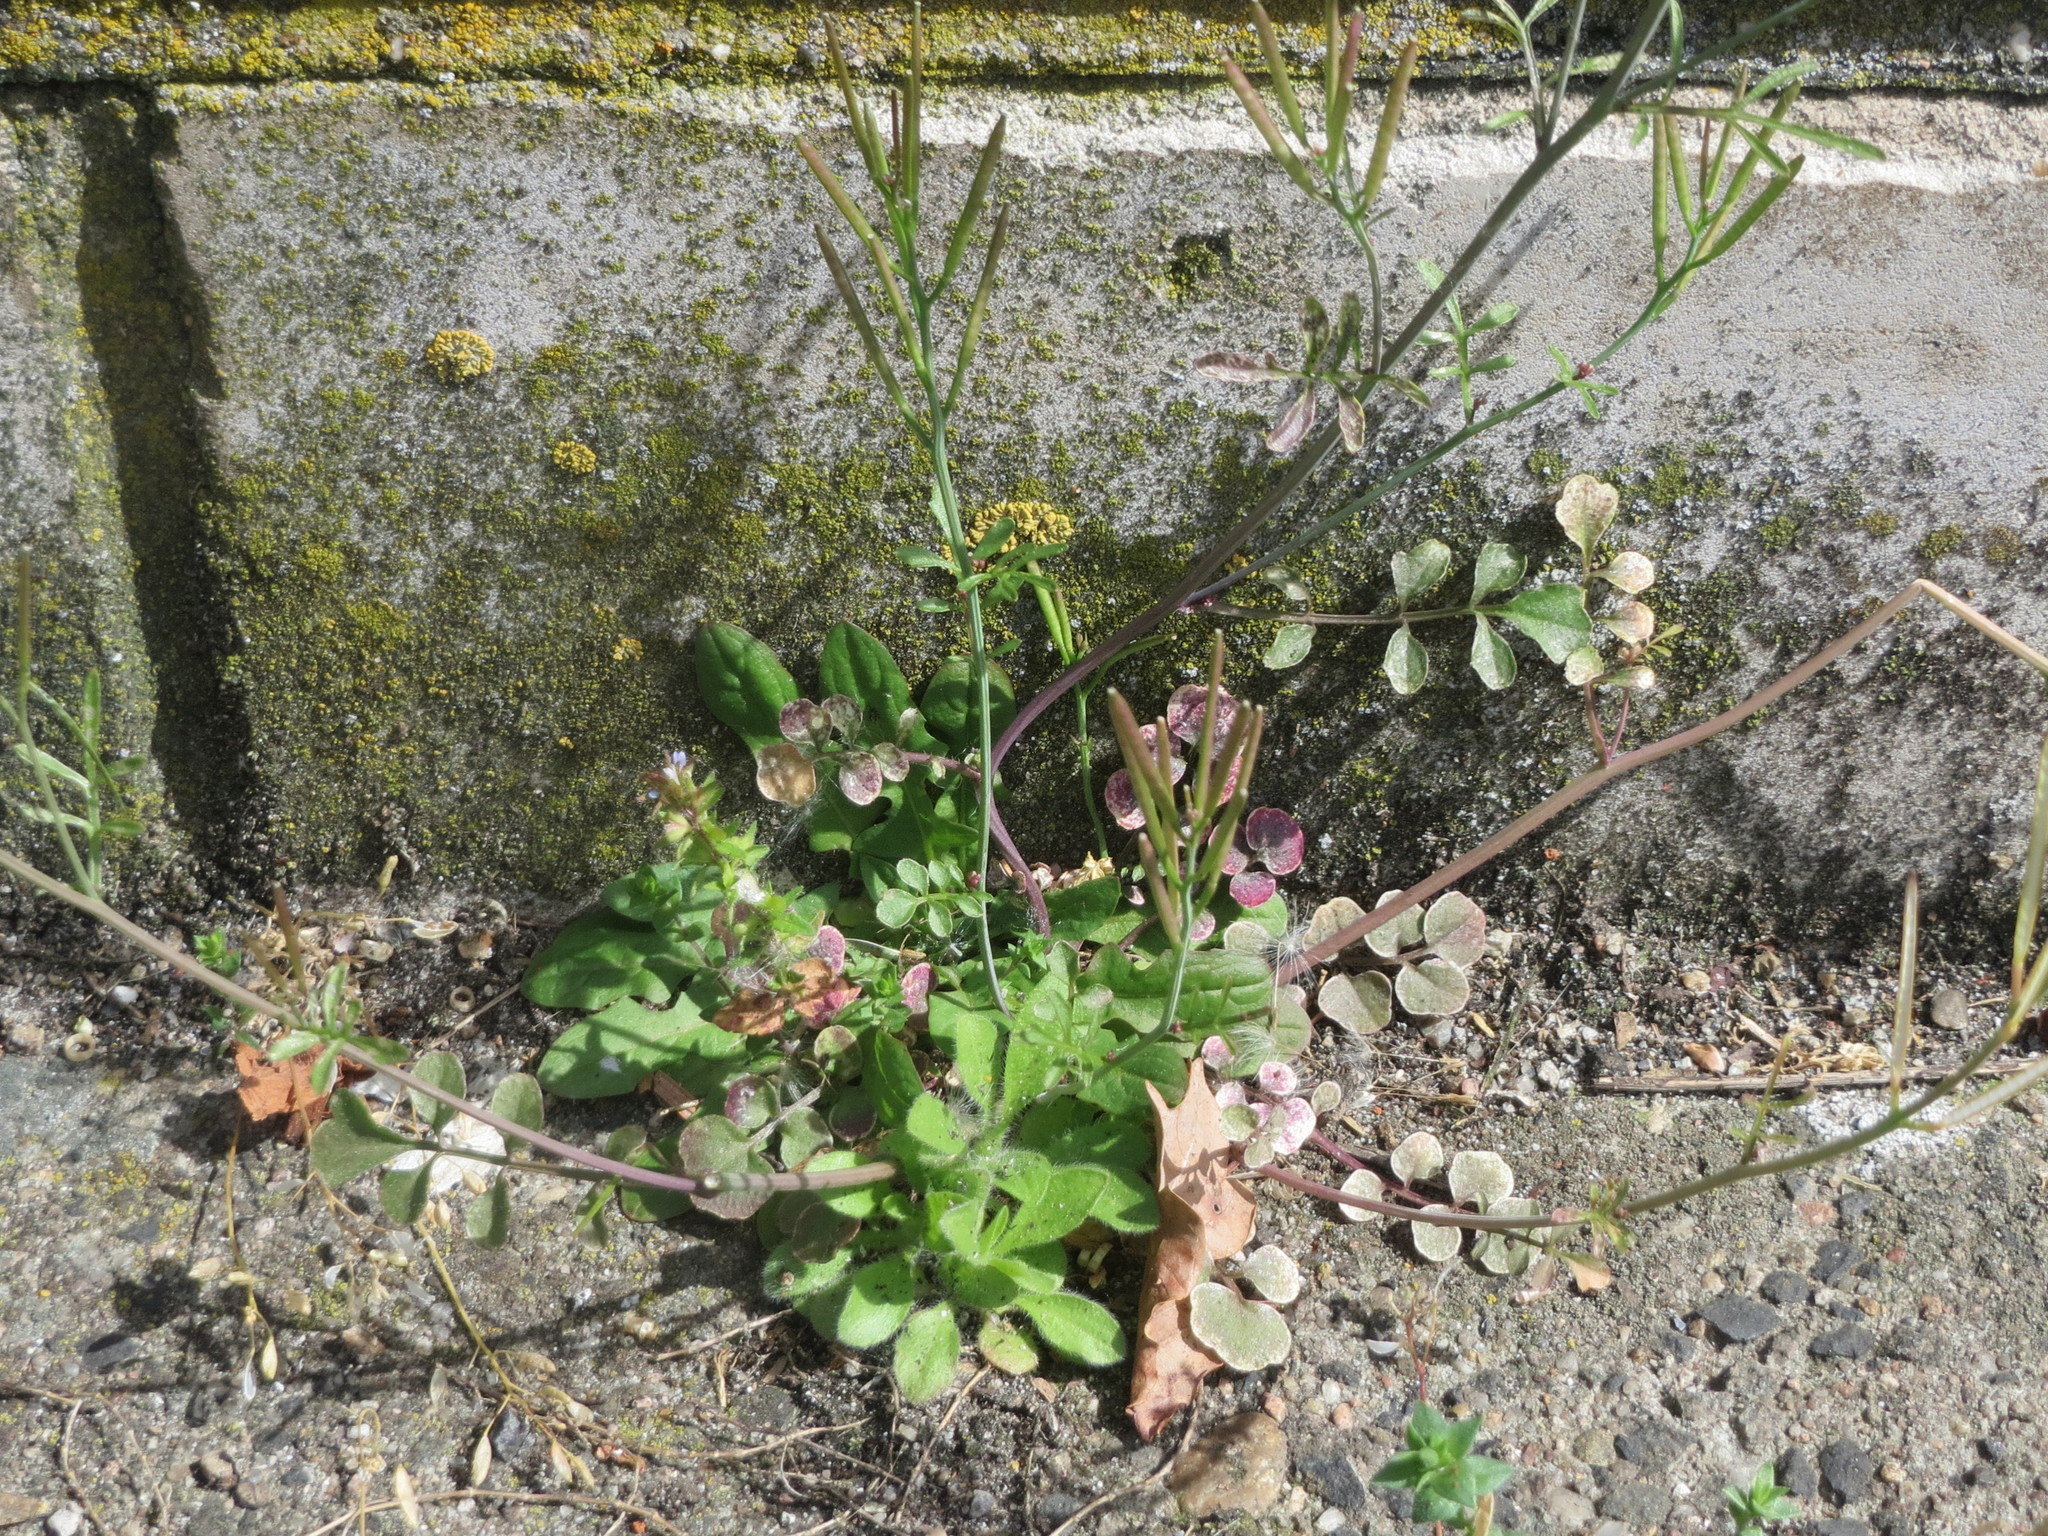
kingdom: Plantae
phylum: Tracheophyta
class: Magnoliopsida
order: Brassicales
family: Brassicaceae
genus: Cardamine
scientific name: Cardamine hirsuta
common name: Hairy bittercress
